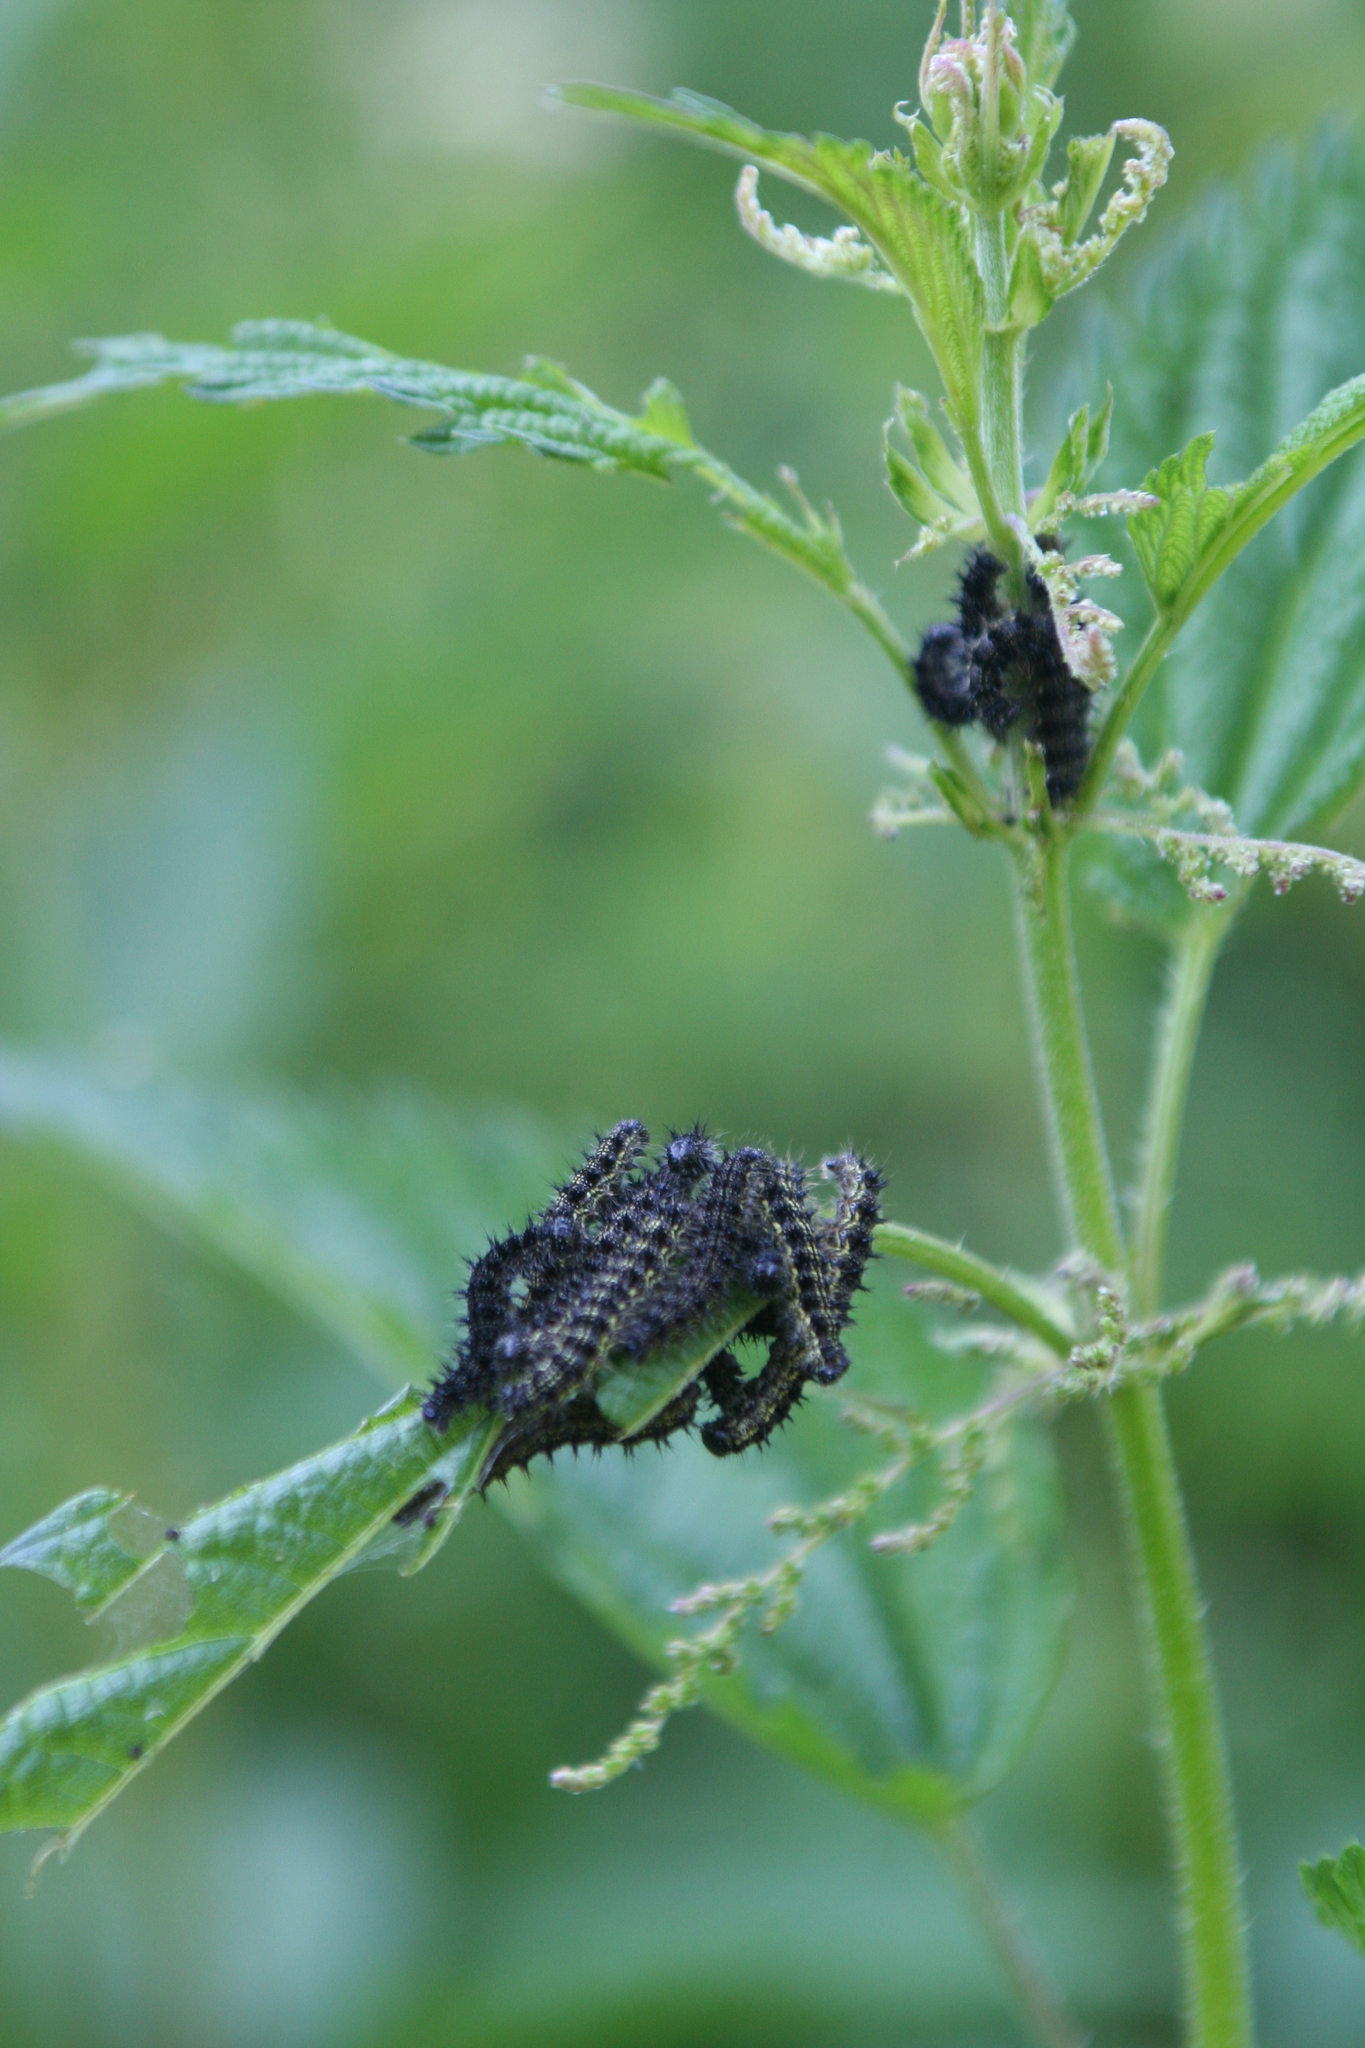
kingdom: Animalia
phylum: Arthropoda
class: Insecta
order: Lepidoptera
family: Nymphalidae
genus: Aglais
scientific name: Aglais urticae
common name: Small tortoiseshell
